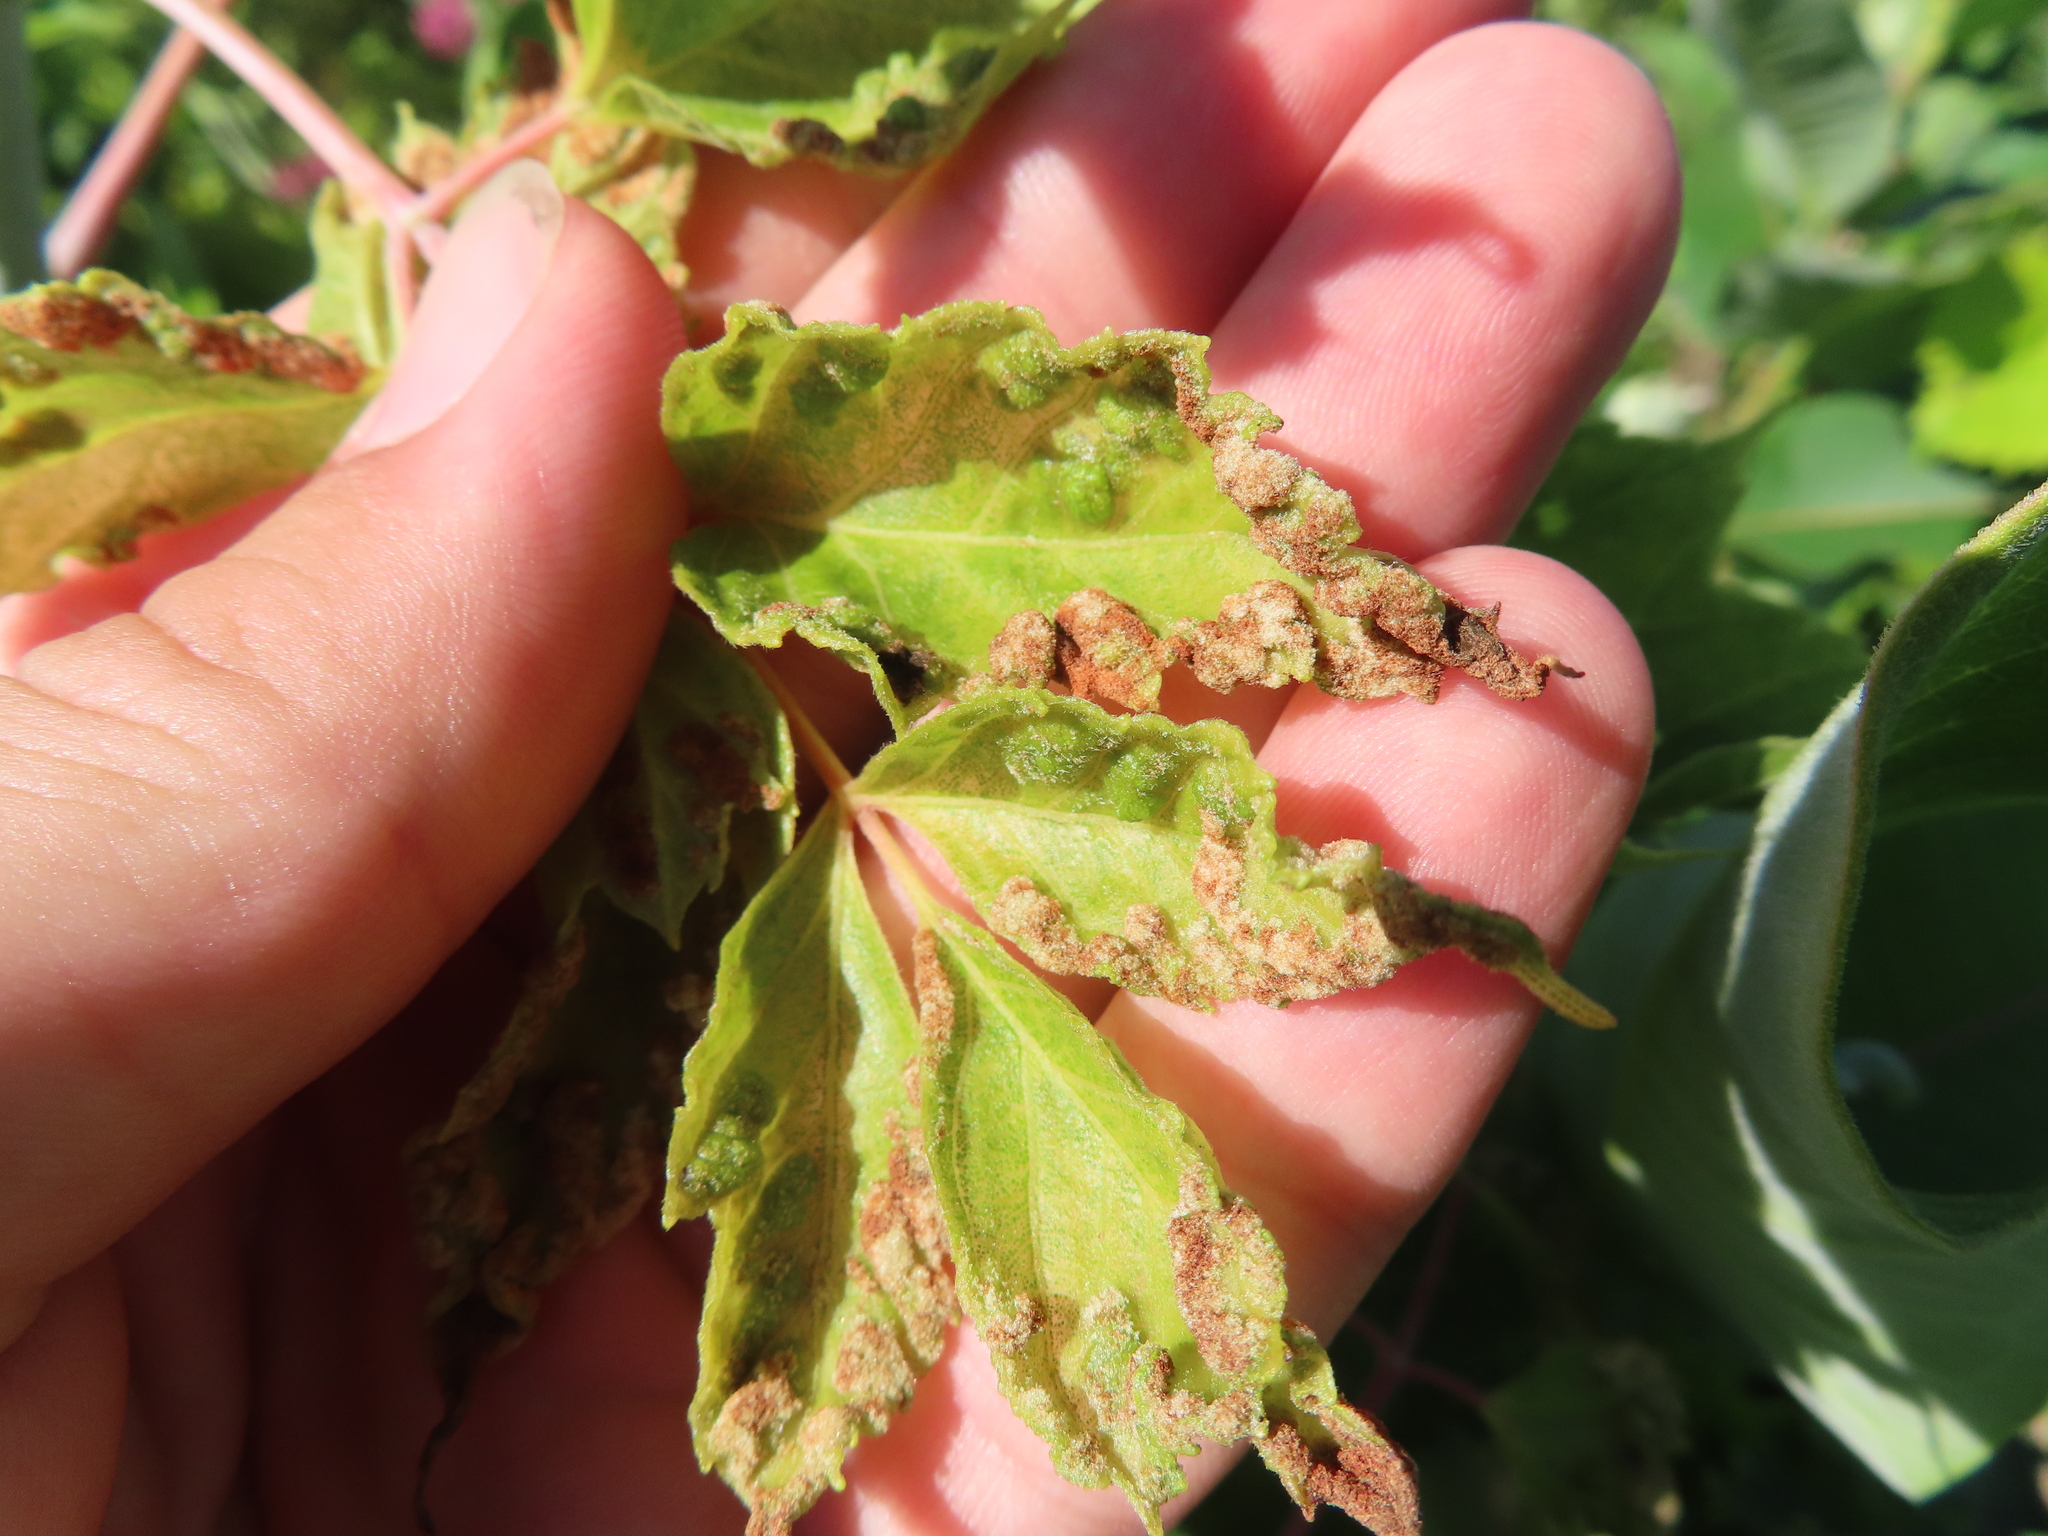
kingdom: Animalia
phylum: Arthropoda
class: Arachnida
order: Trombidiformes
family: Eriophyidae
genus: Aceria
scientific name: Aceria
